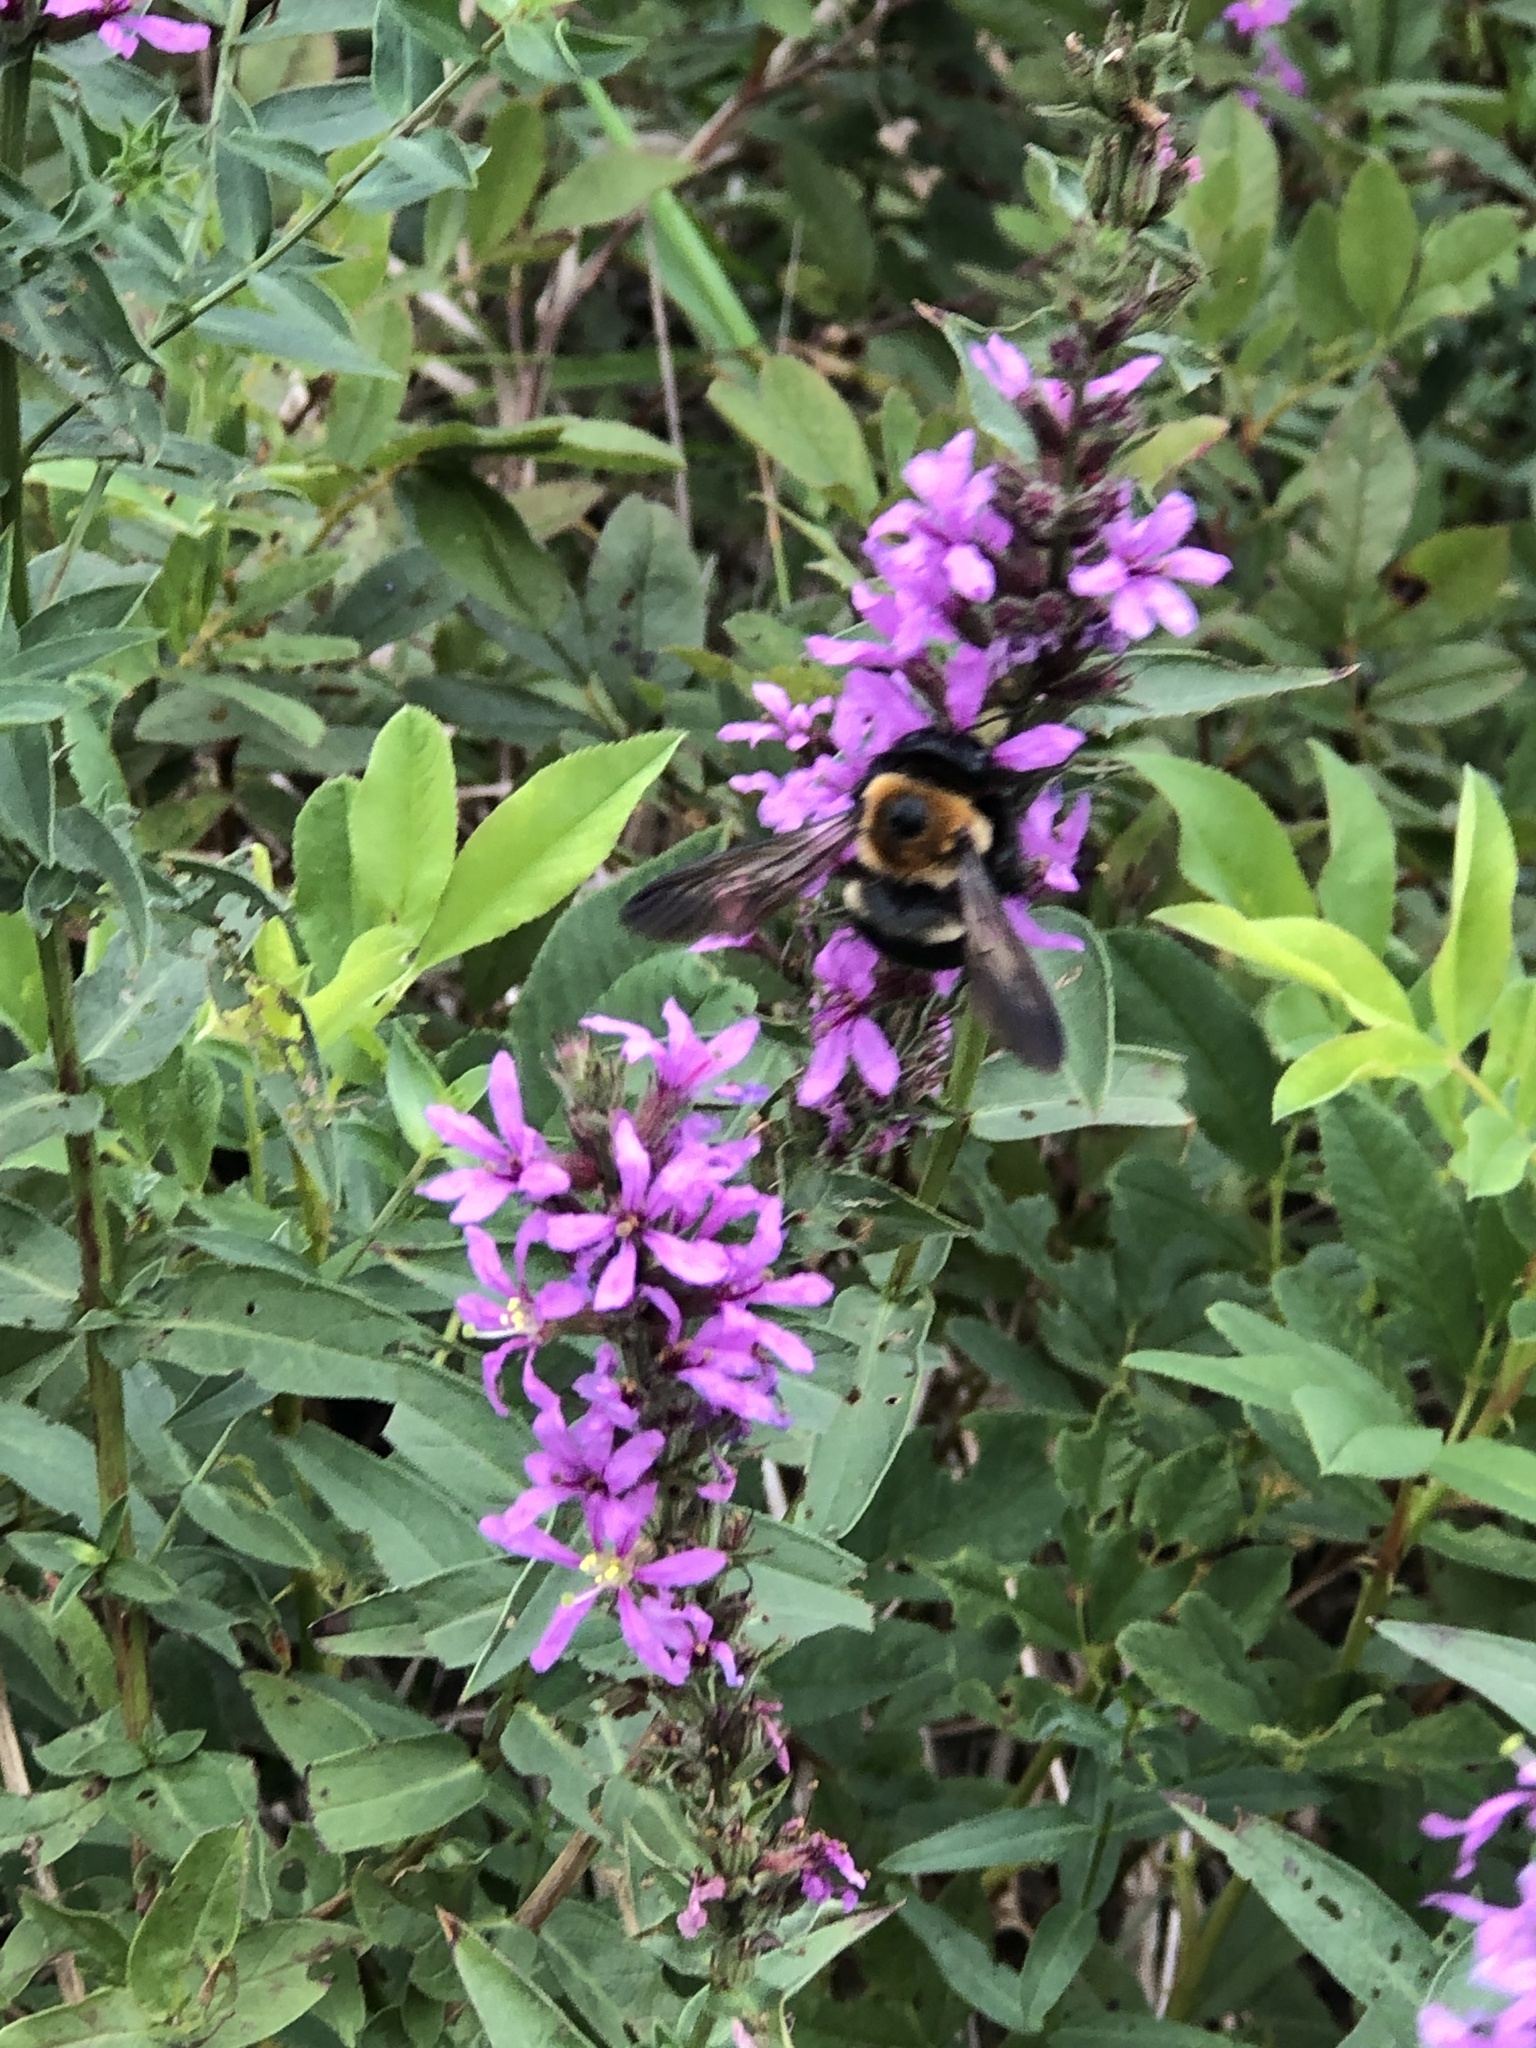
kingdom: Animalia
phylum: Arthropoda
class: Insecta
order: Hymenoptera
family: Apidae
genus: Xylocopa
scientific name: Xylocopa virginica
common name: Carpenter bee
